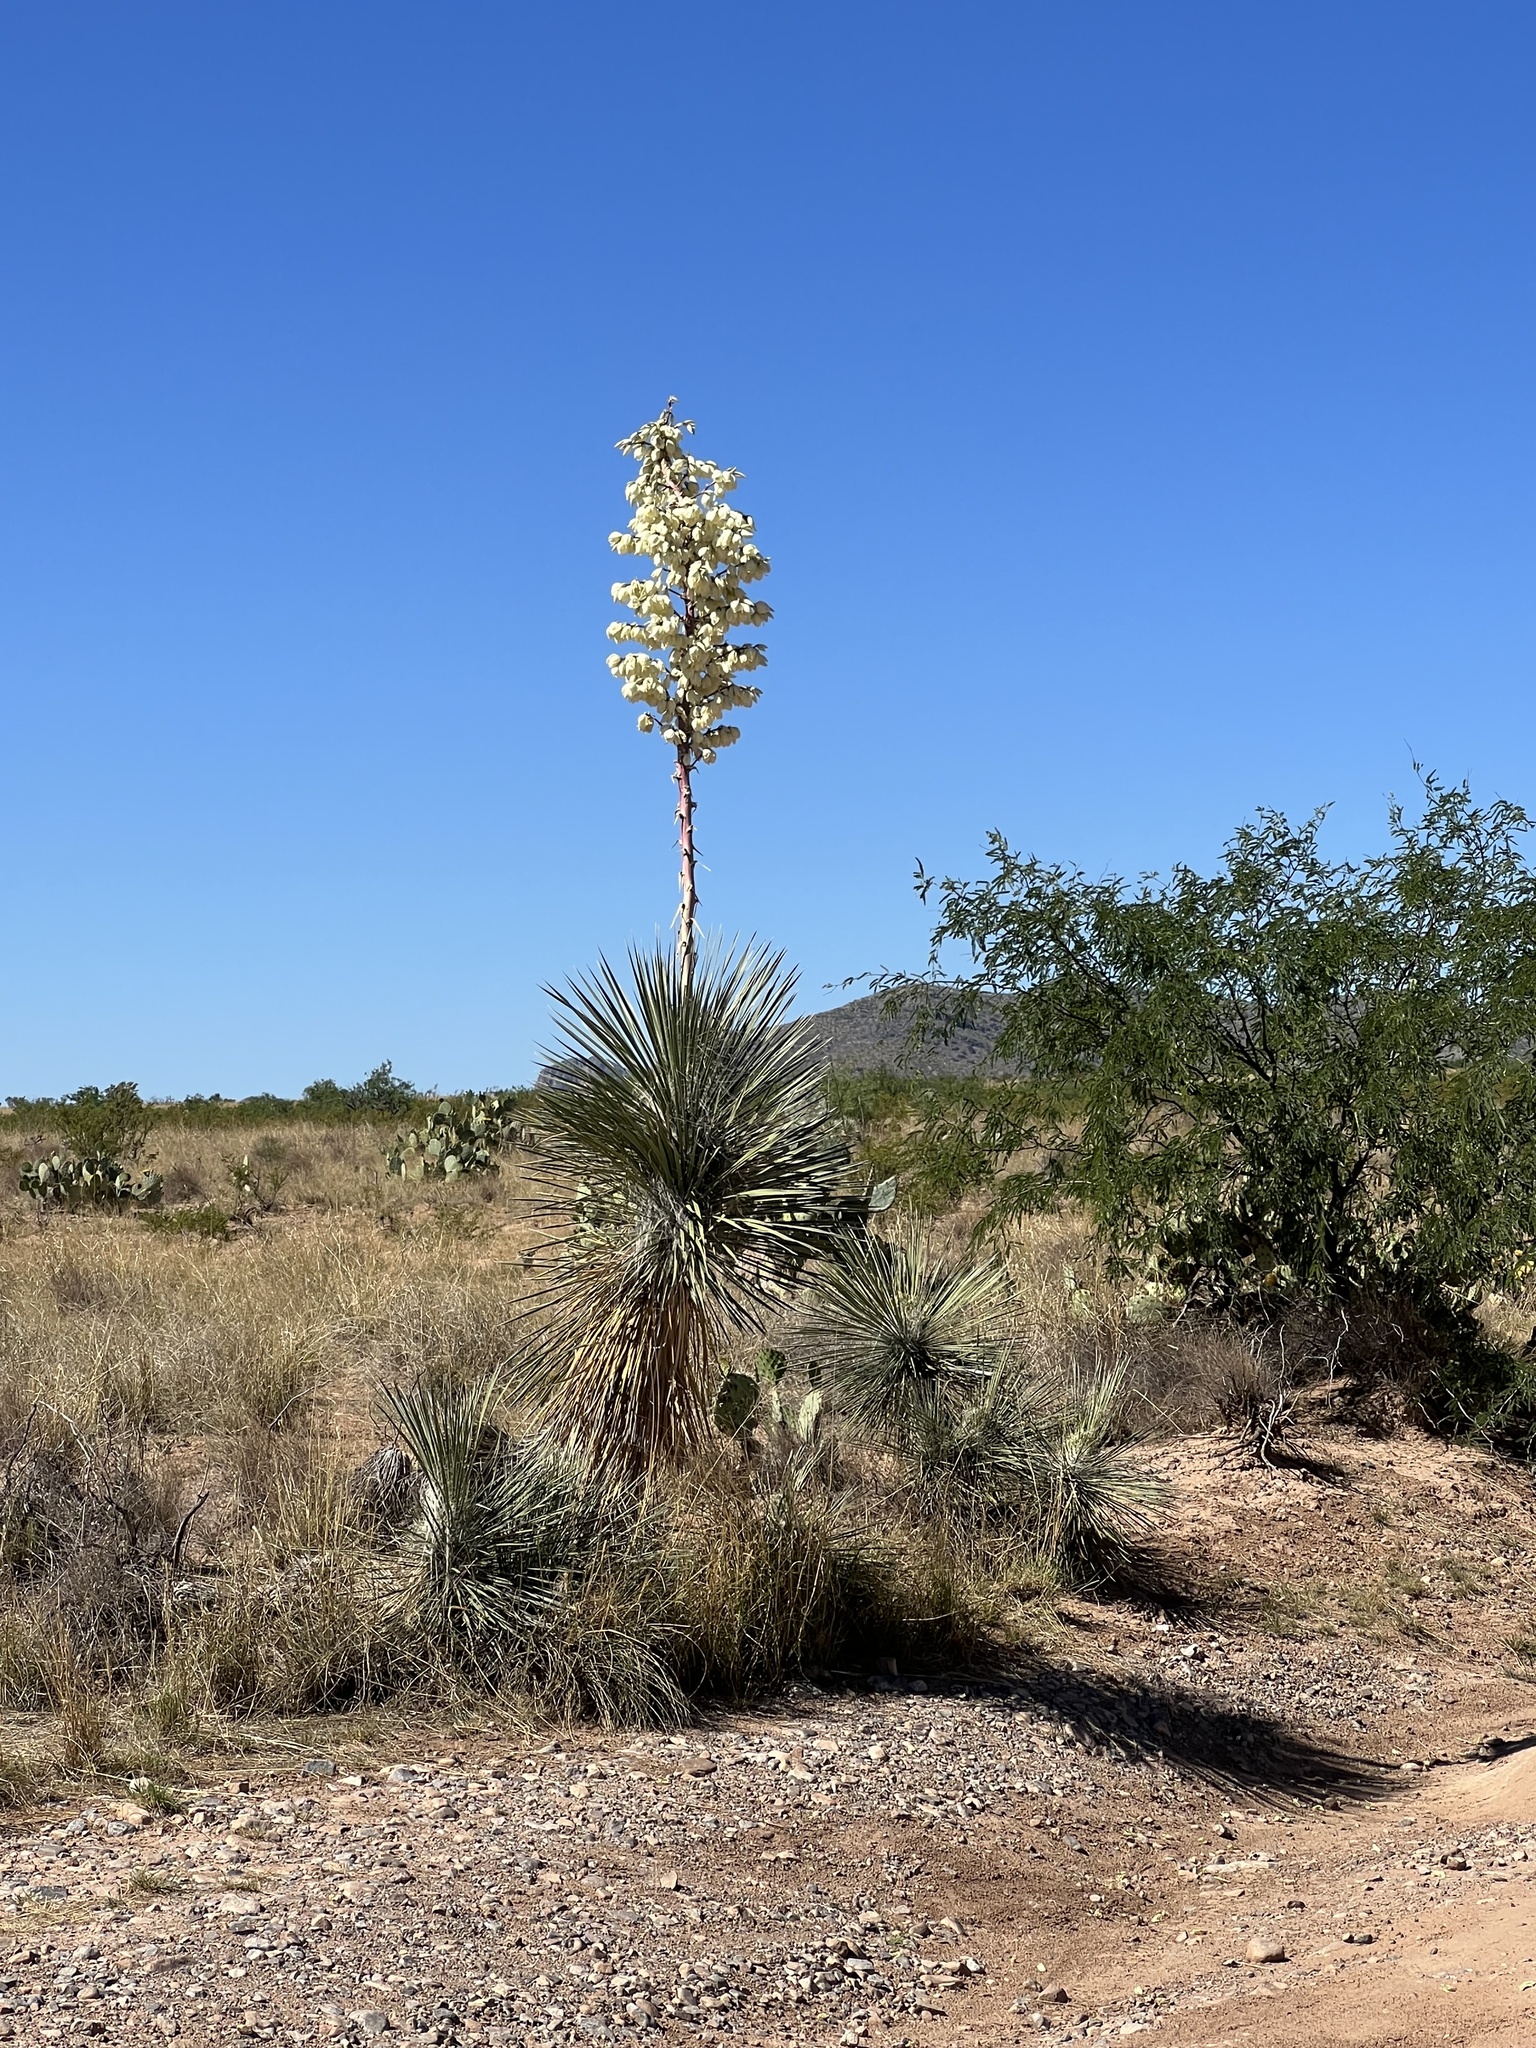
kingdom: Plantae
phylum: Tracheophyta
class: Liliopsida
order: Asparagales
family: Asparagaceae
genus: Yucca
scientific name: Yucca elata
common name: Palmella
